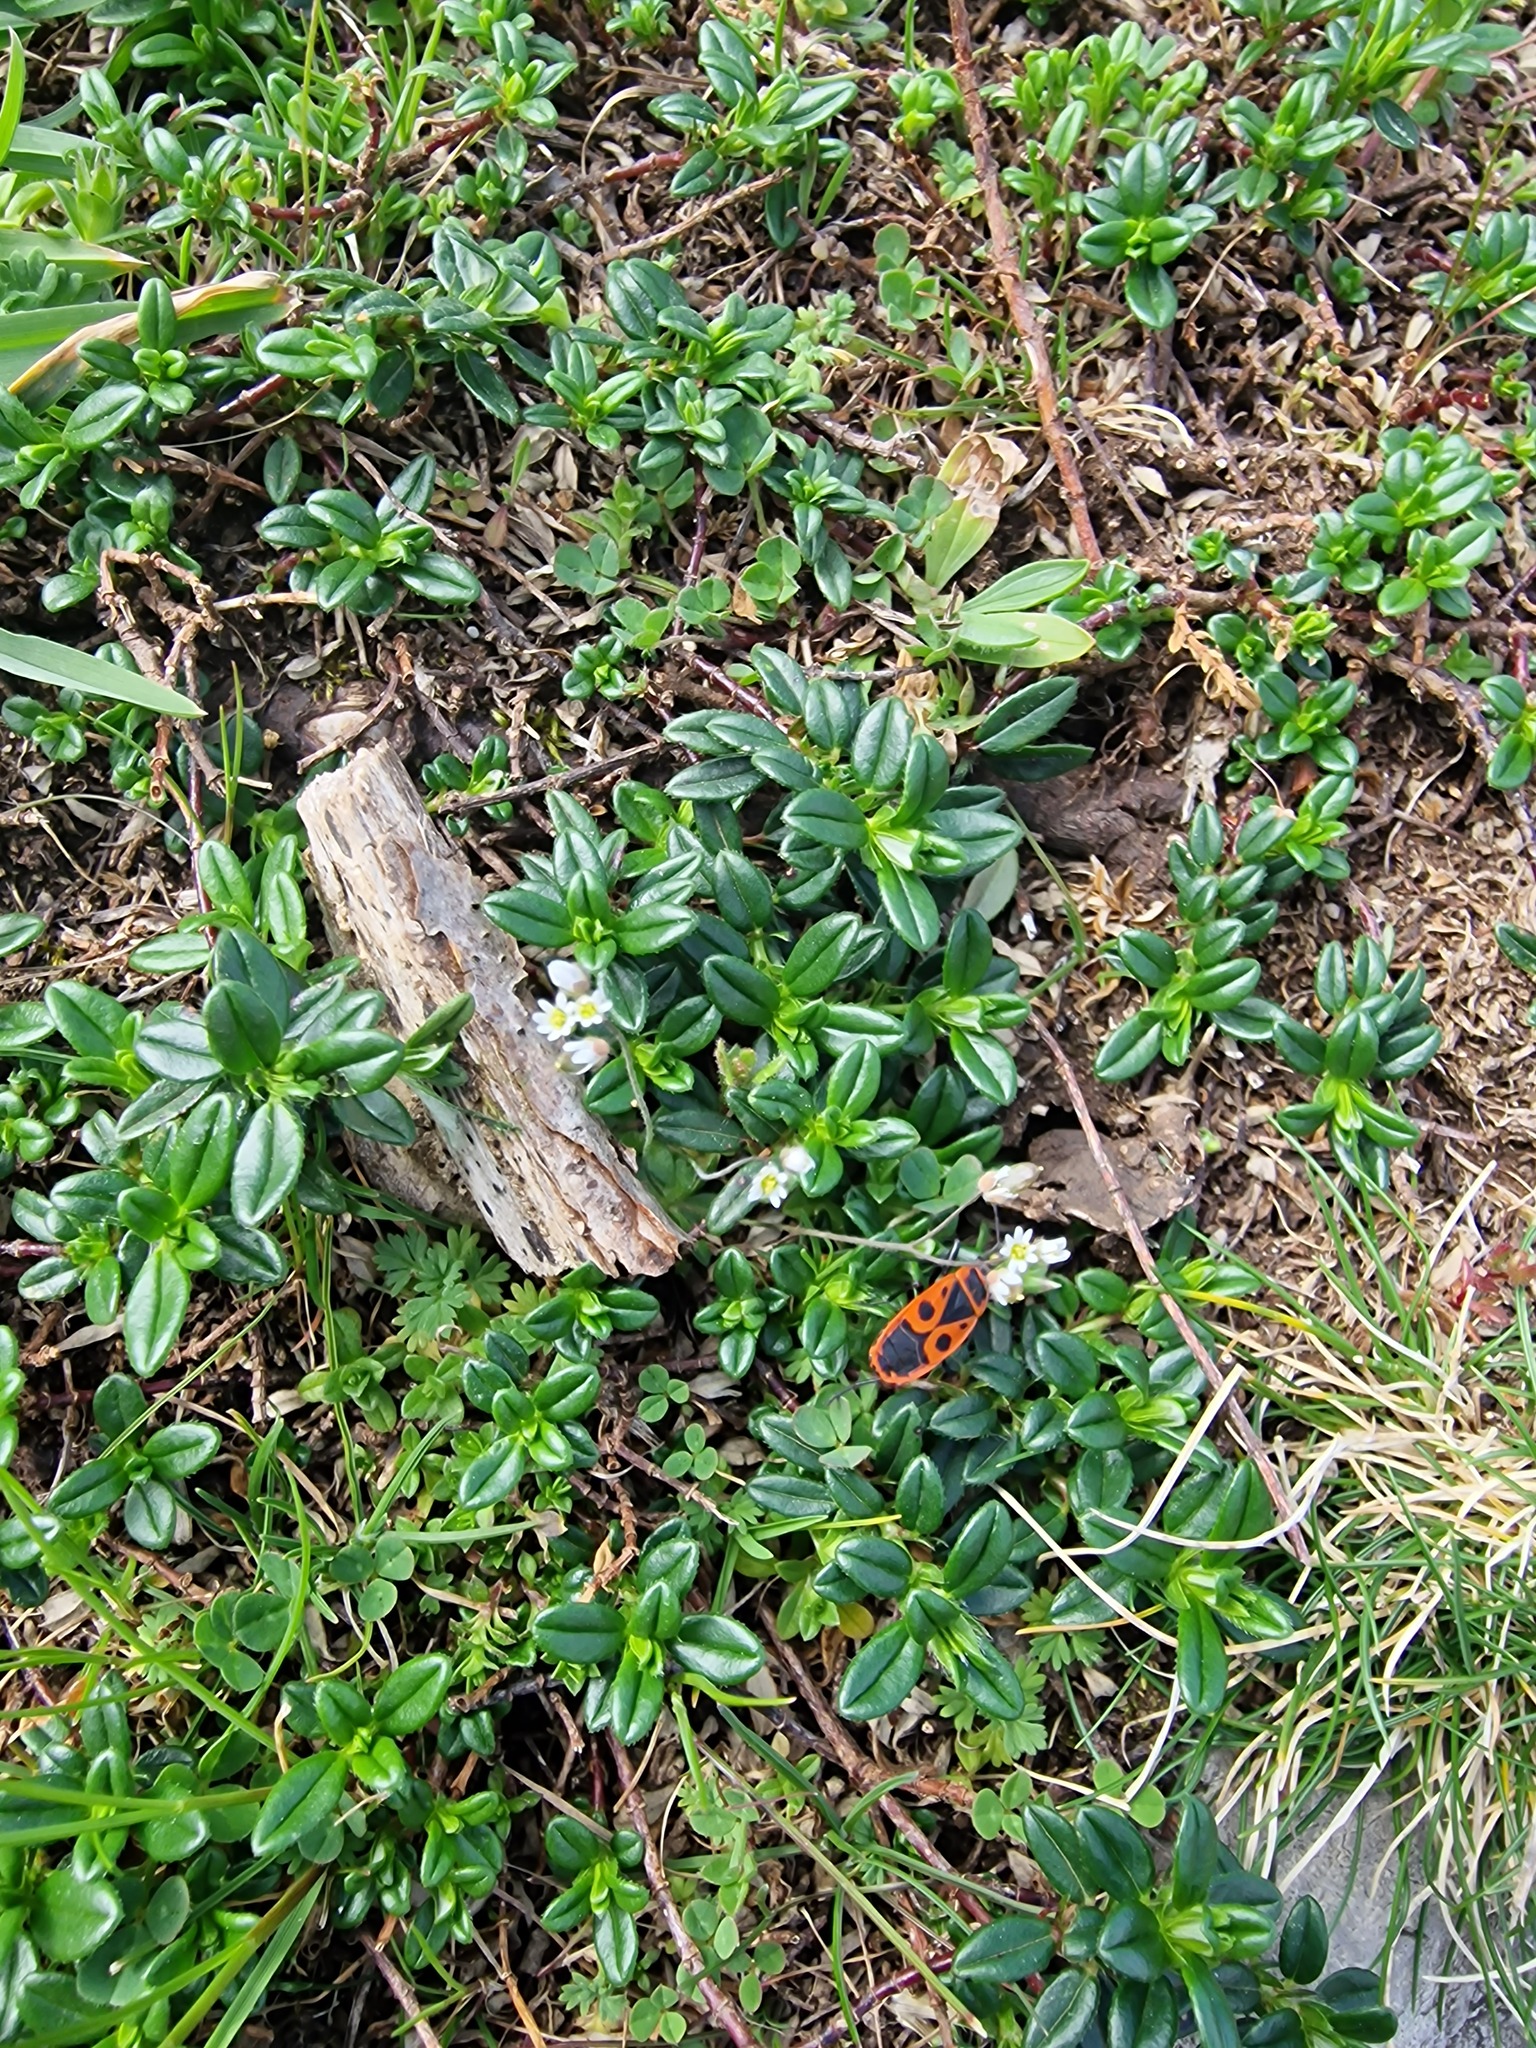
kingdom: Animalia
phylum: Arthropoda
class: Insecta
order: Hemiptera
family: Pyrrhocoridae
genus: Pyrrhocoris
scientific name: Pyrrhocoris apterus
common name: Firebug
